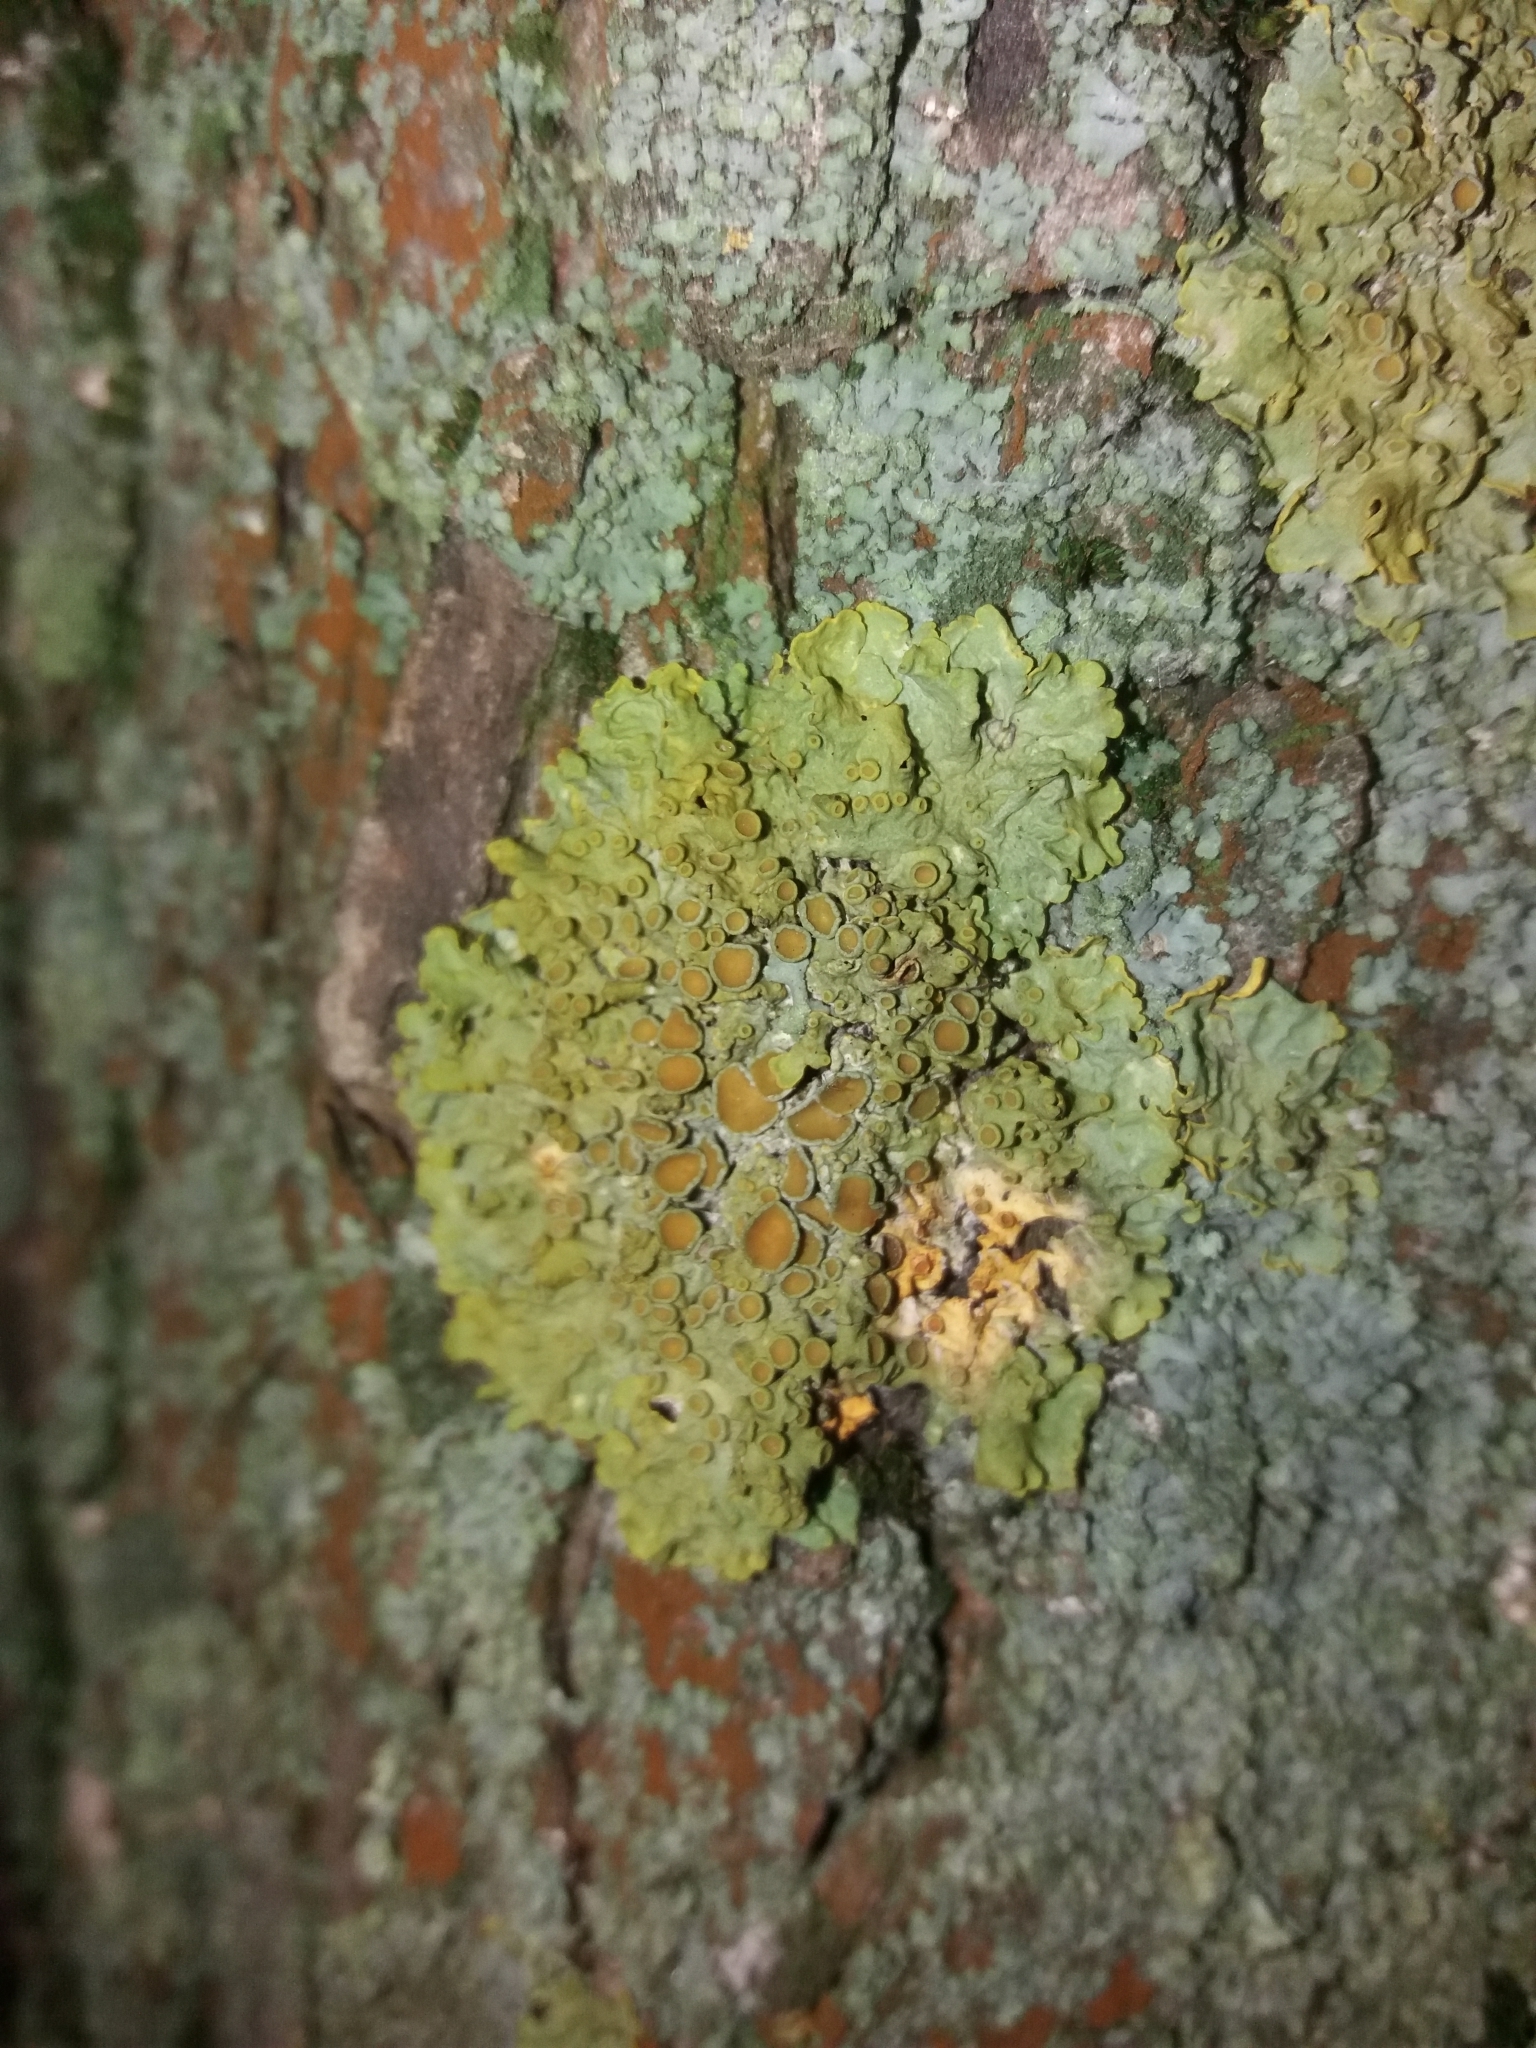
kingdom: Fungi
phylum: Ascomycota
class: Lecanoromycetes
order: Teloschistales
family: Teloschistaceae
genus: Xanthoria
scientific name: Xanthoria parietina
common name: Common orange lichen
